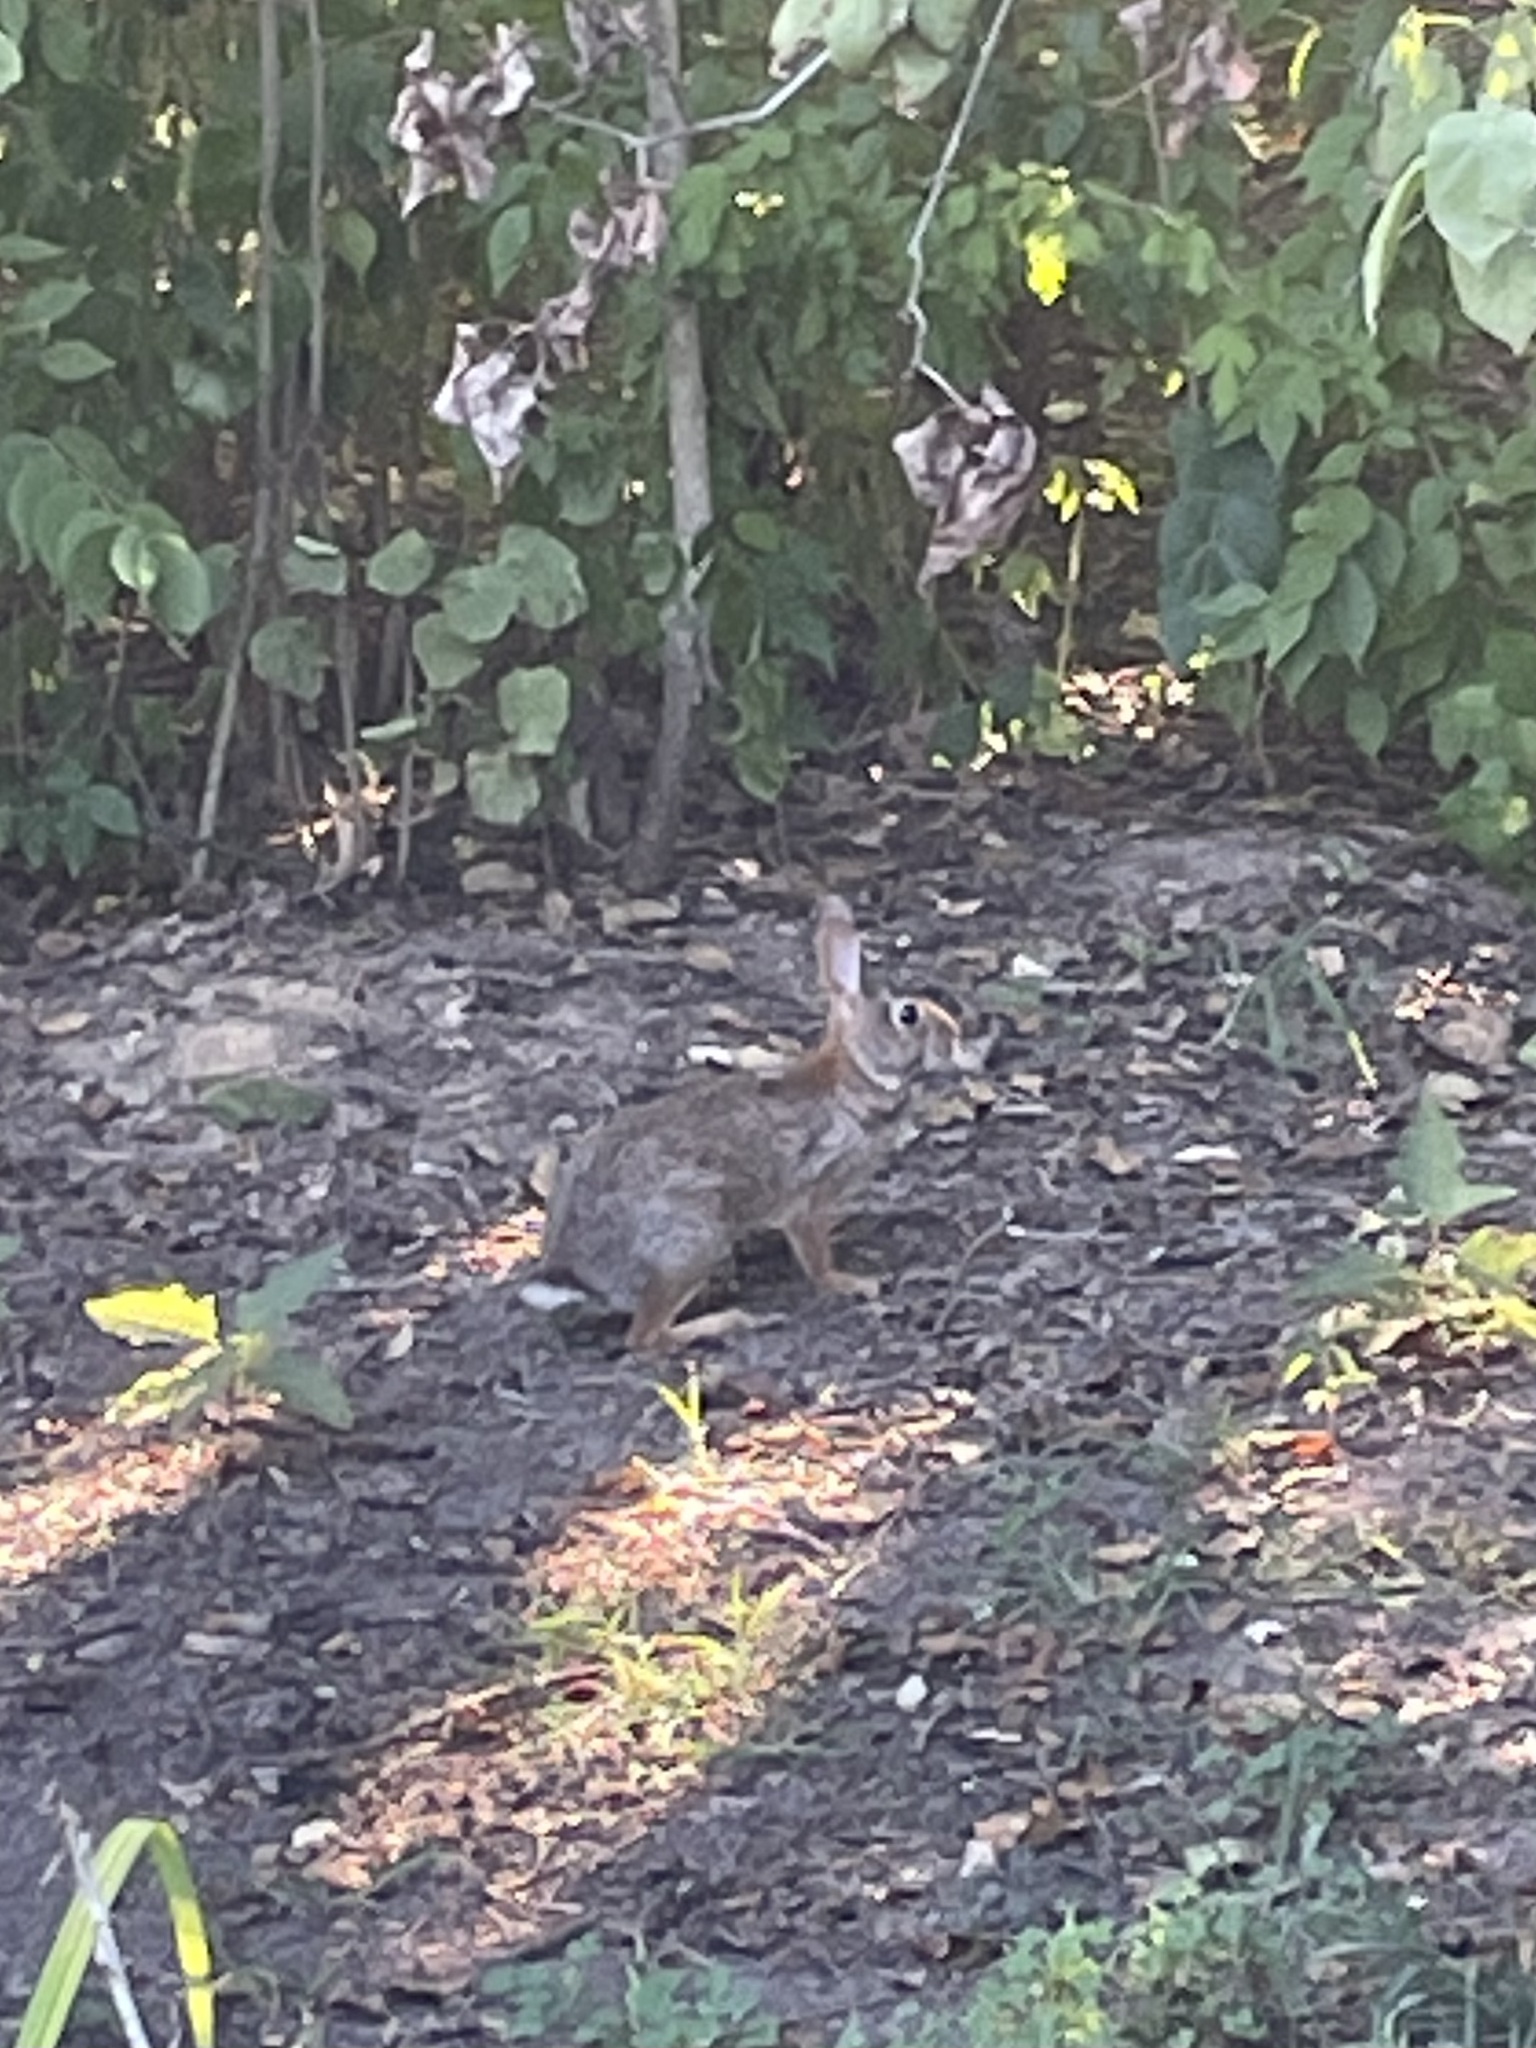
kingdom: Animalia
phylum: Chordata
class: Mammalia
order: Lagomorpha
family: Leporidae
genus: Sylvilagus
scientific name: Sylvilagus floridanus
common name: Eastern cottontail
